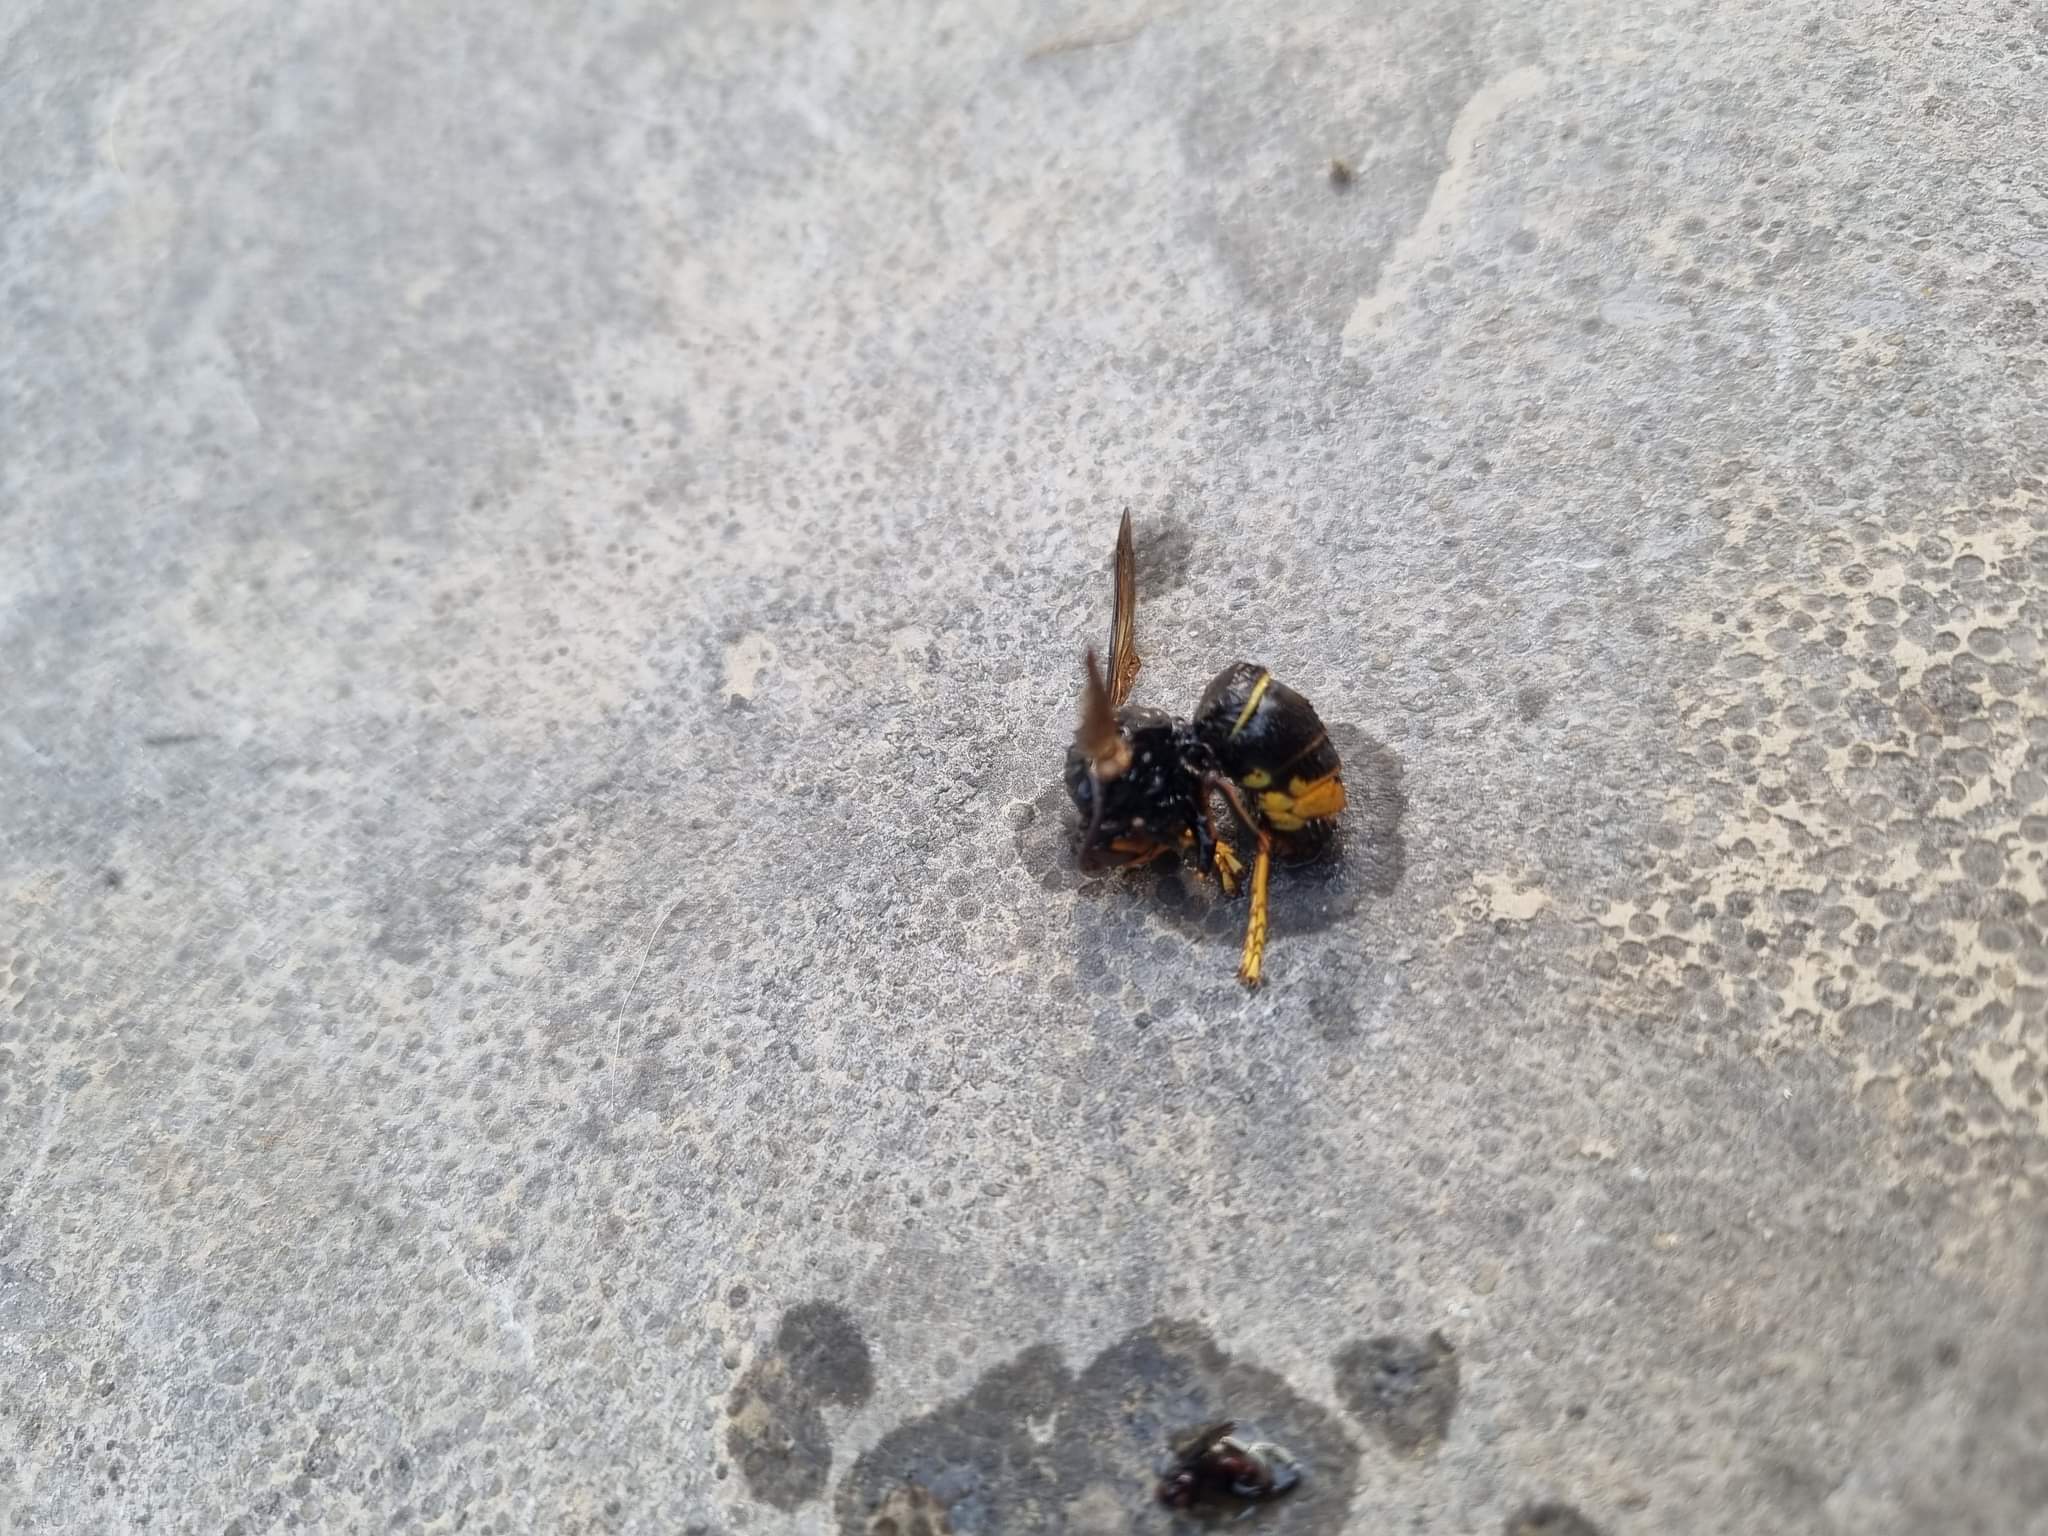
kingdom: Animalia
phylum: Arthropoda
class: Insecta
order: Hymenoptera
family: Vespidae
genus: Vespa
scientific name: Vespa velutina
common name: Asian hornet
